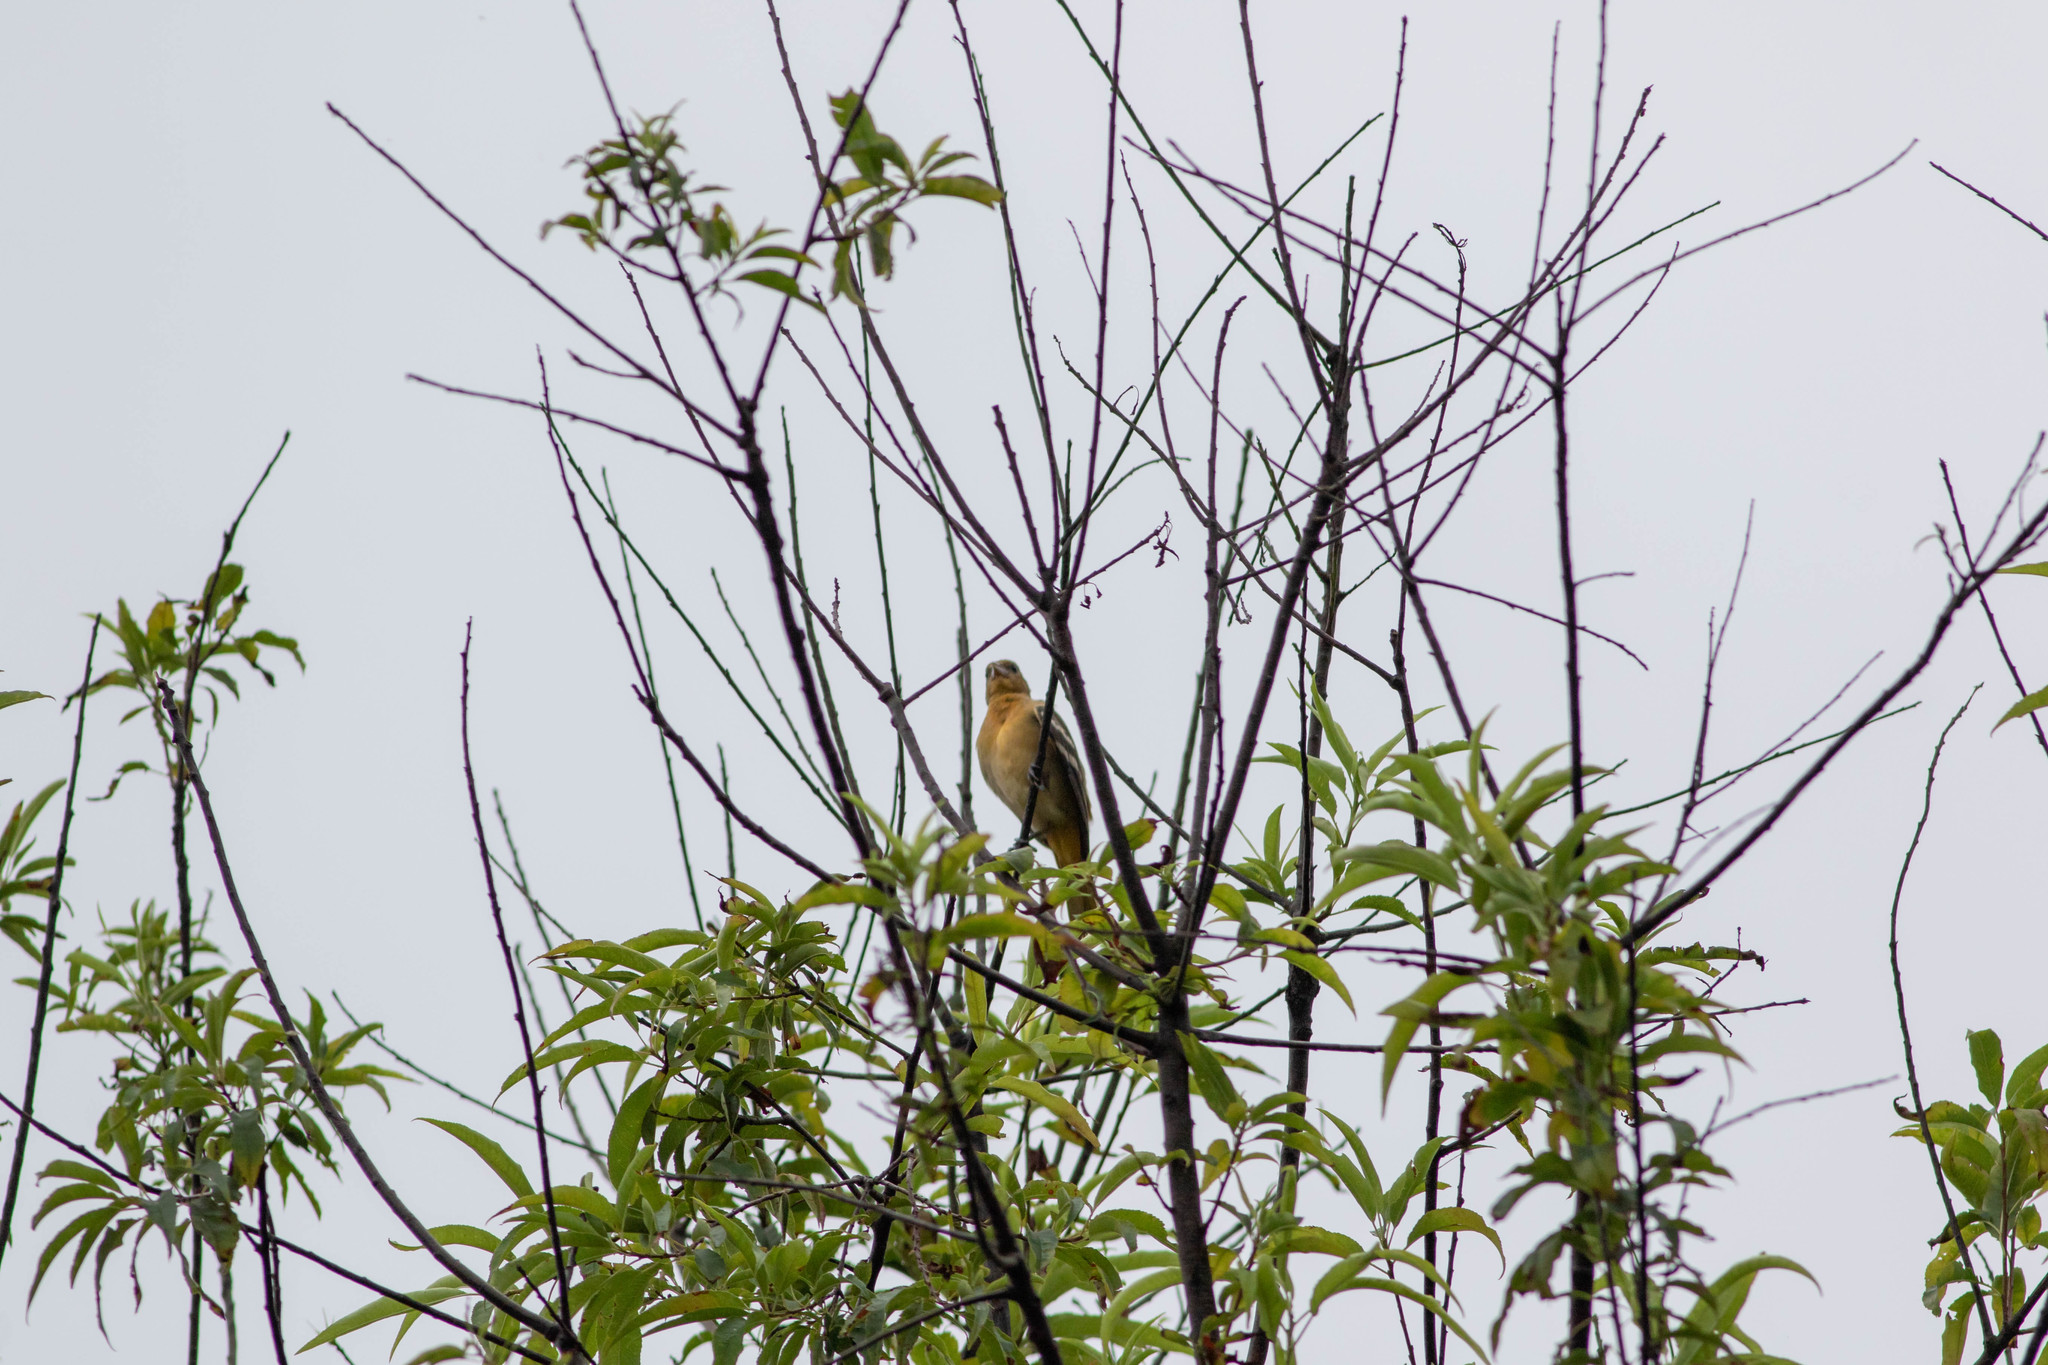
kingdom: Animalia
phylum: Chordata
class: Aves
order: Passeriformes
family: Icteridae
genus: Icterus
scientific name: Icterus galbula
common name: Baltimore oriole
